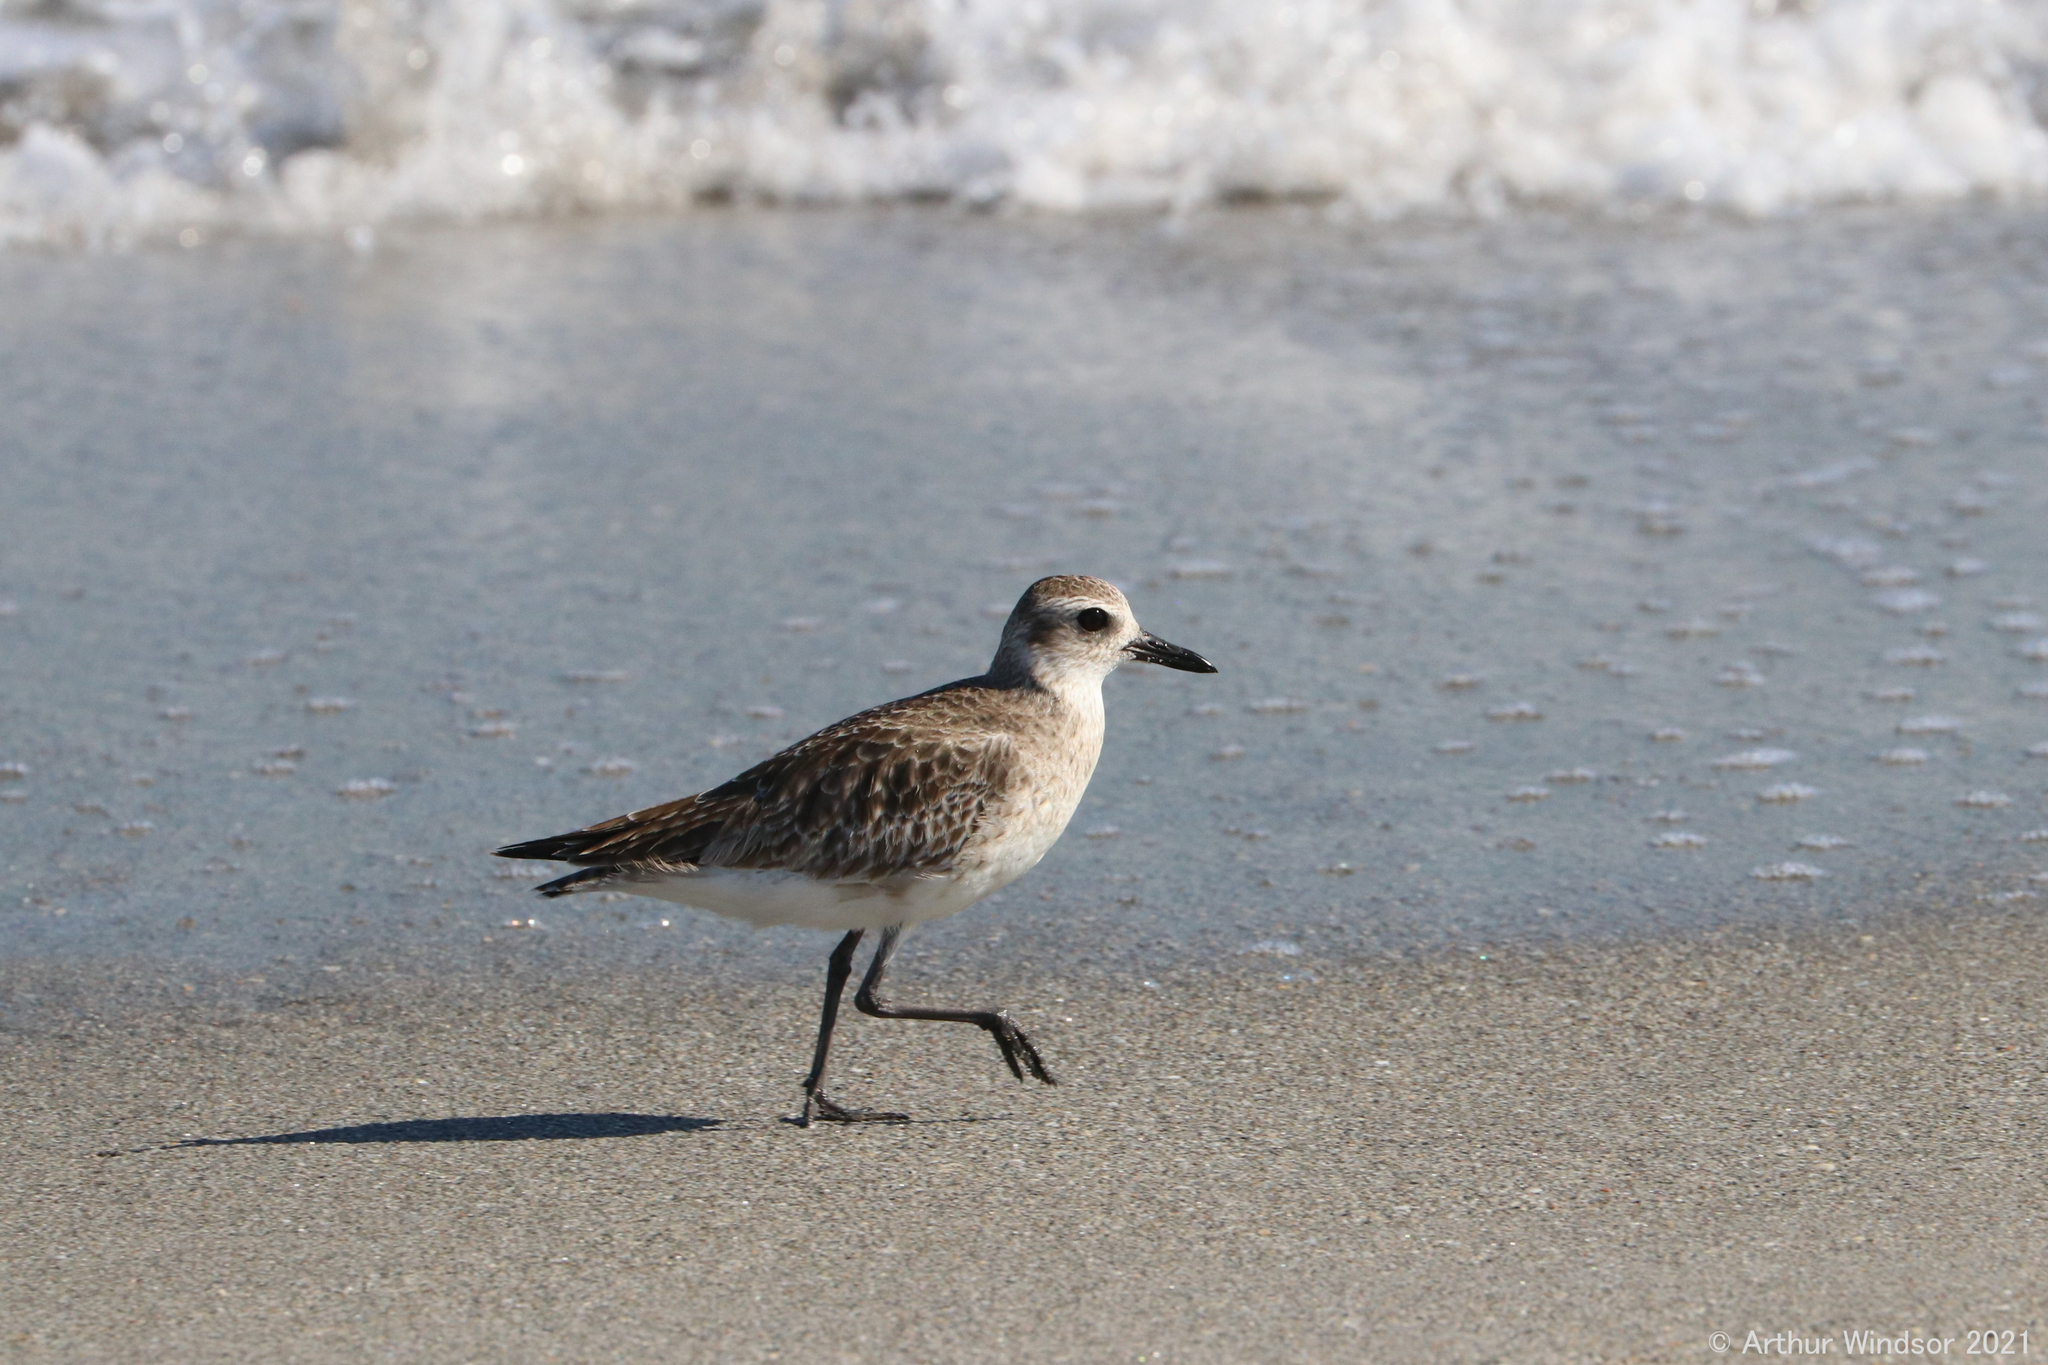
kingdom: Animalia
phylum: Chordata
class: Aves
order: Charadriiformes
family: Charadriidae
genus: Pluvialis
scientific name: Pluvialis squatarola
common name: Grey plover
